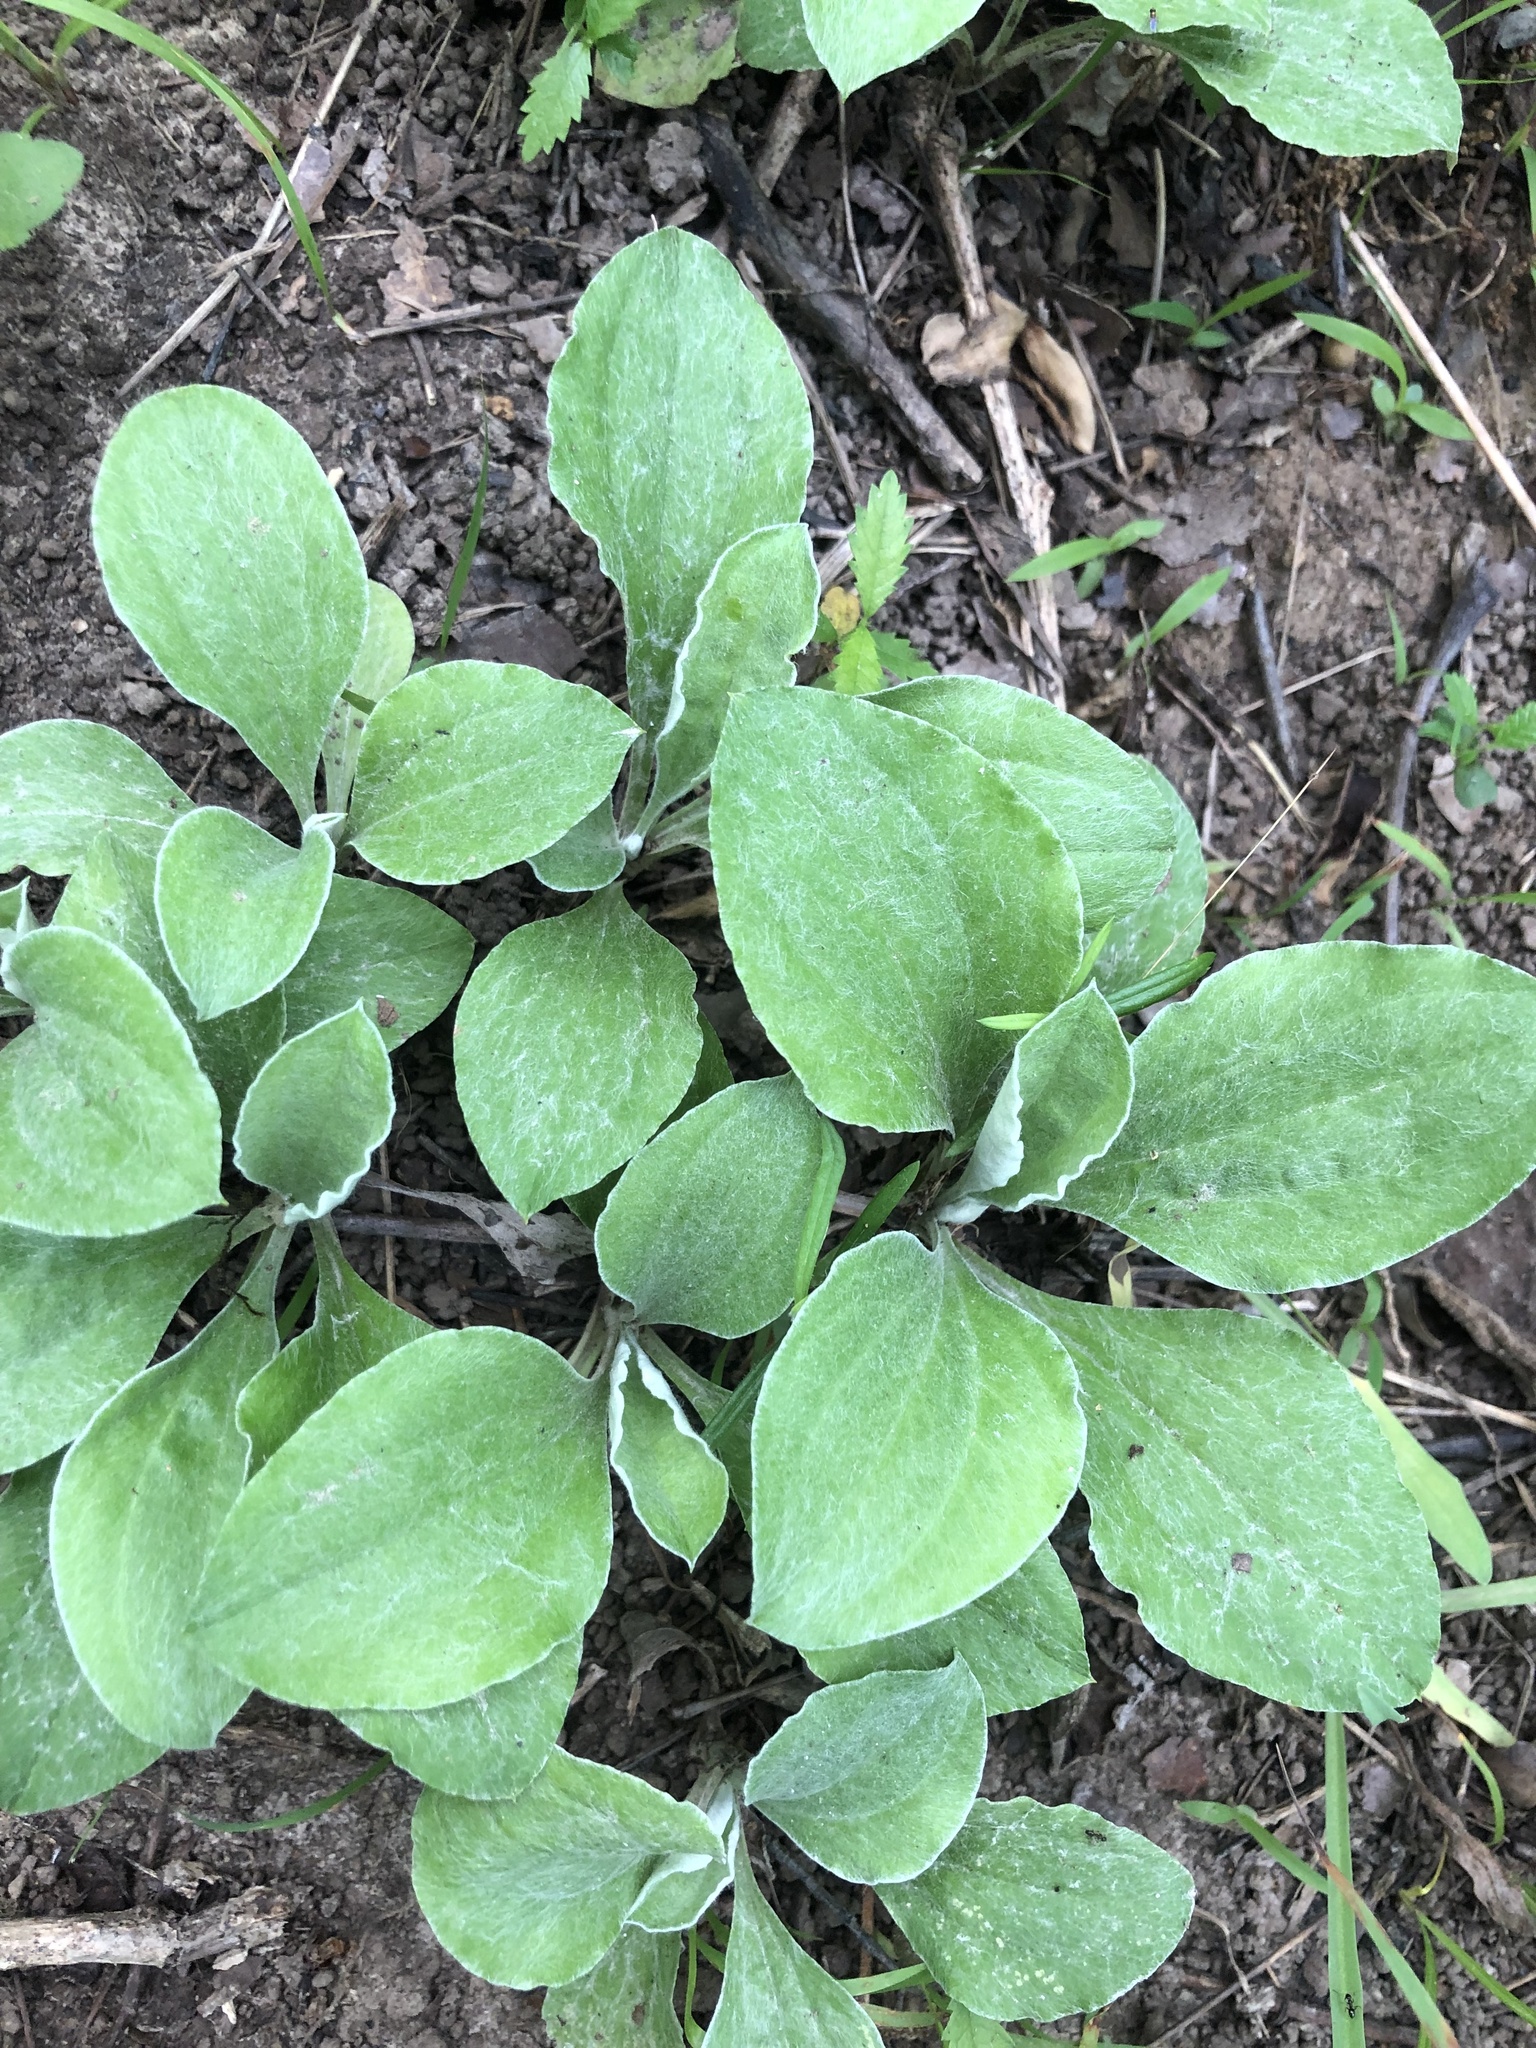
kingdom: Plantae
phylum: Tracheophyta
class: Magnoliopsida
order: Asterales
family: Asteraceae
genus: Antennaria
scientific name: Antennaria plantaginifolia
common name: Plantain-leaved pussytoes
